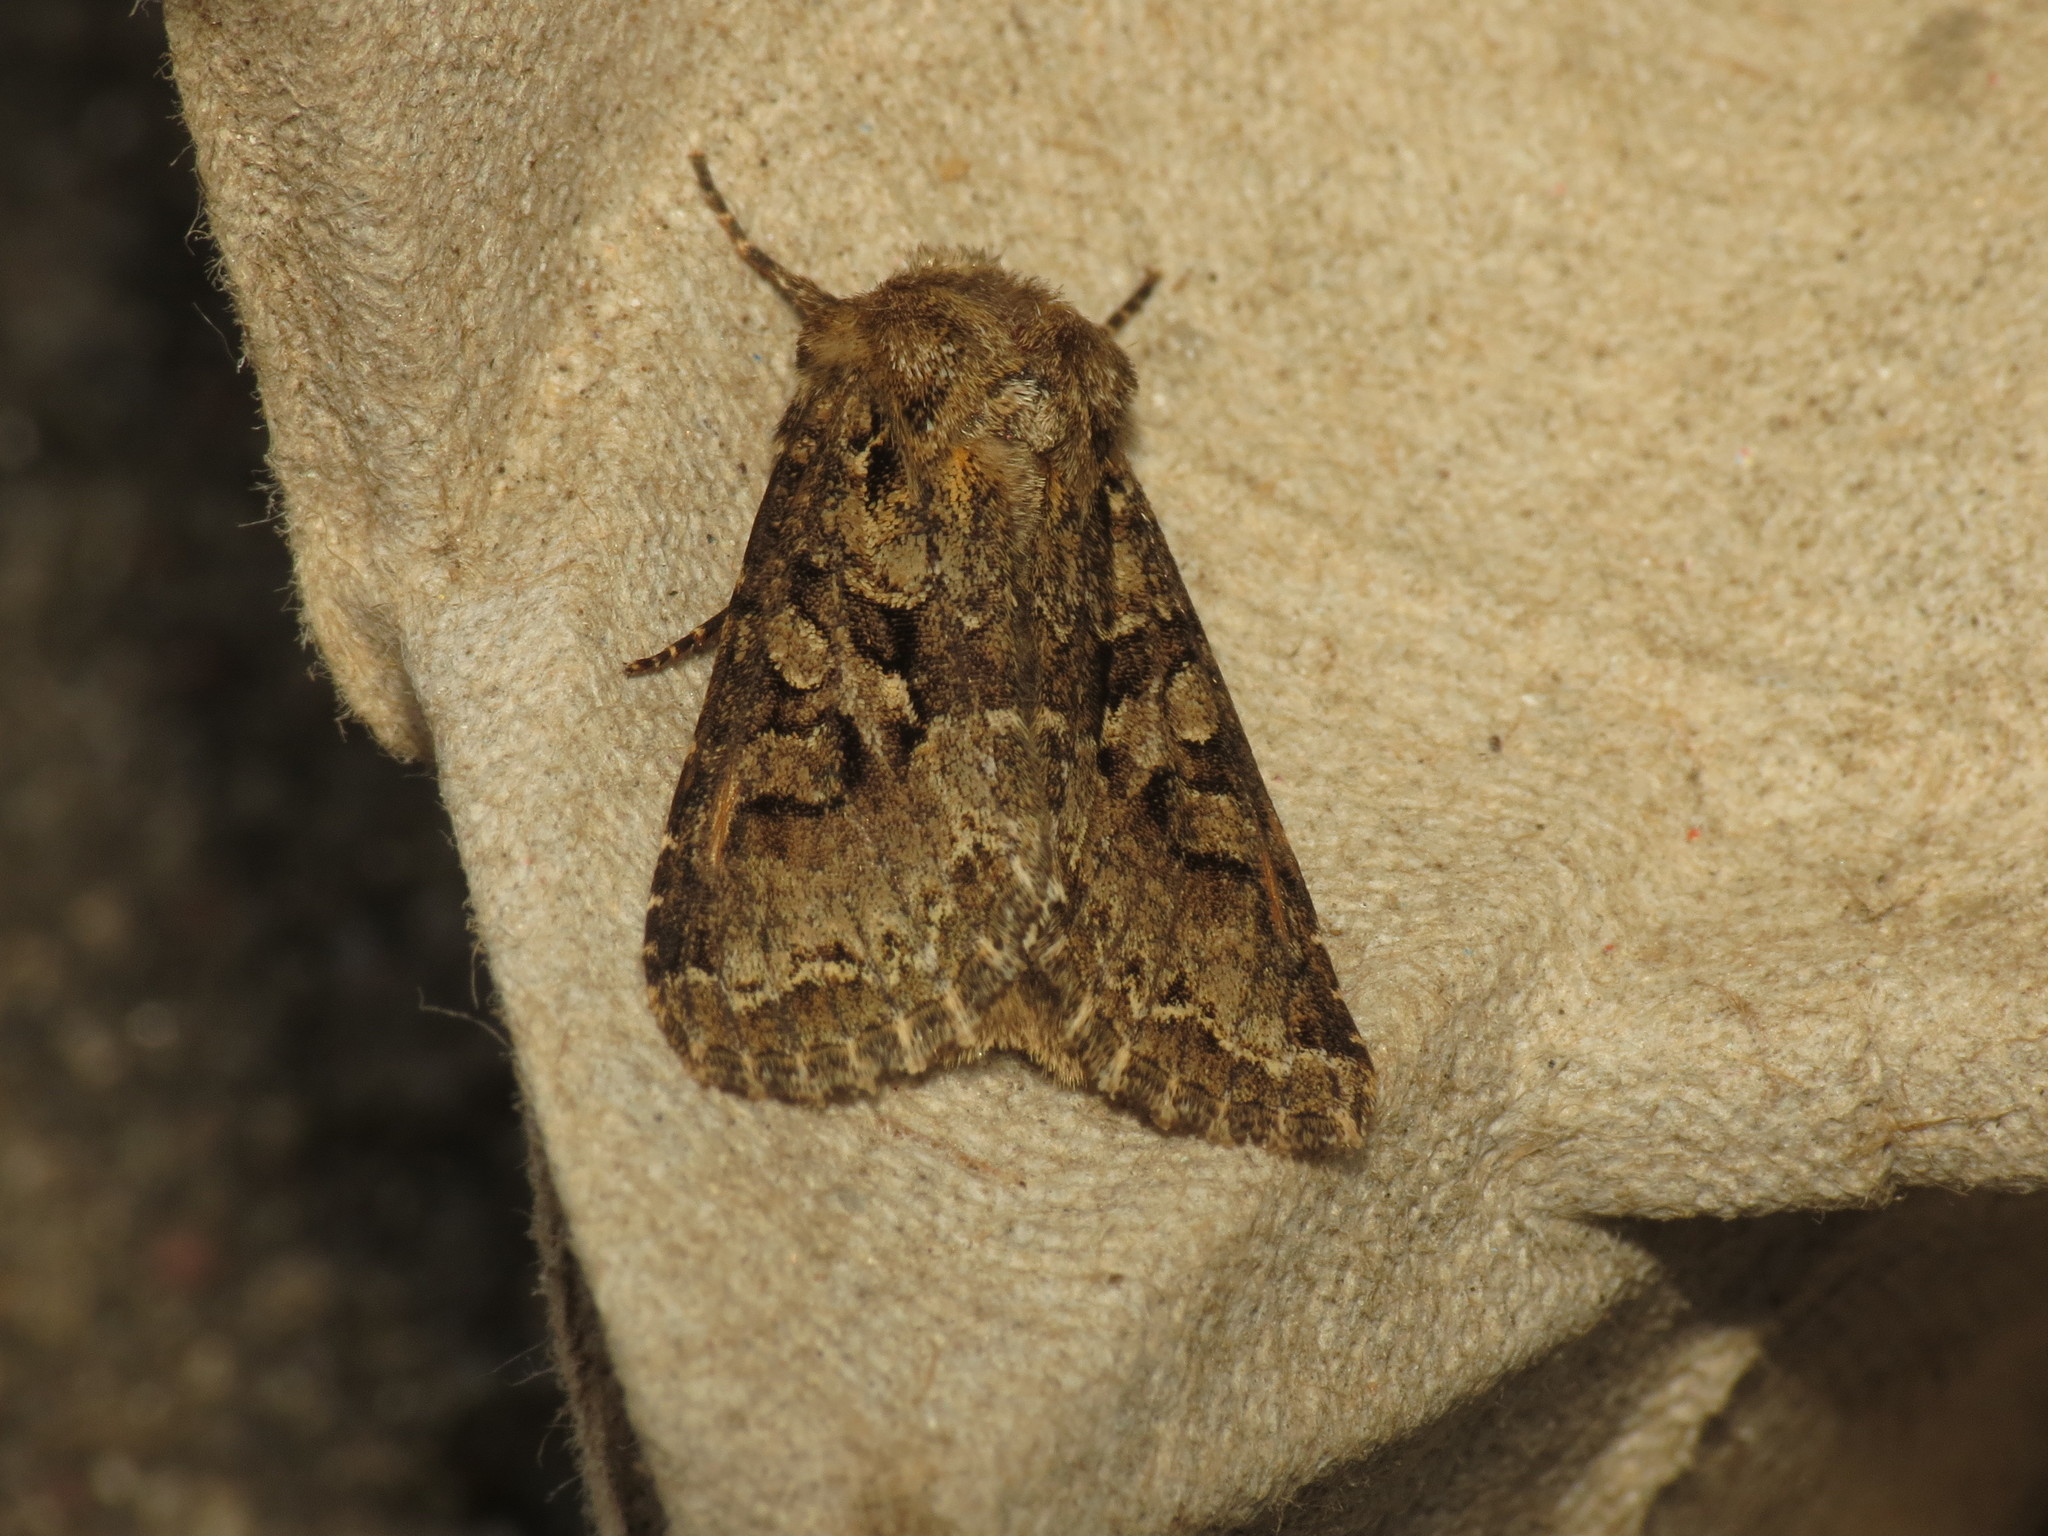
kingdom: Animalia
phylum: Arthropoda
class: Insecta
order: Lepidoptera
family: Noctuidae
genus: Hada
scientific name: Hada plebeja
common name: Shears
